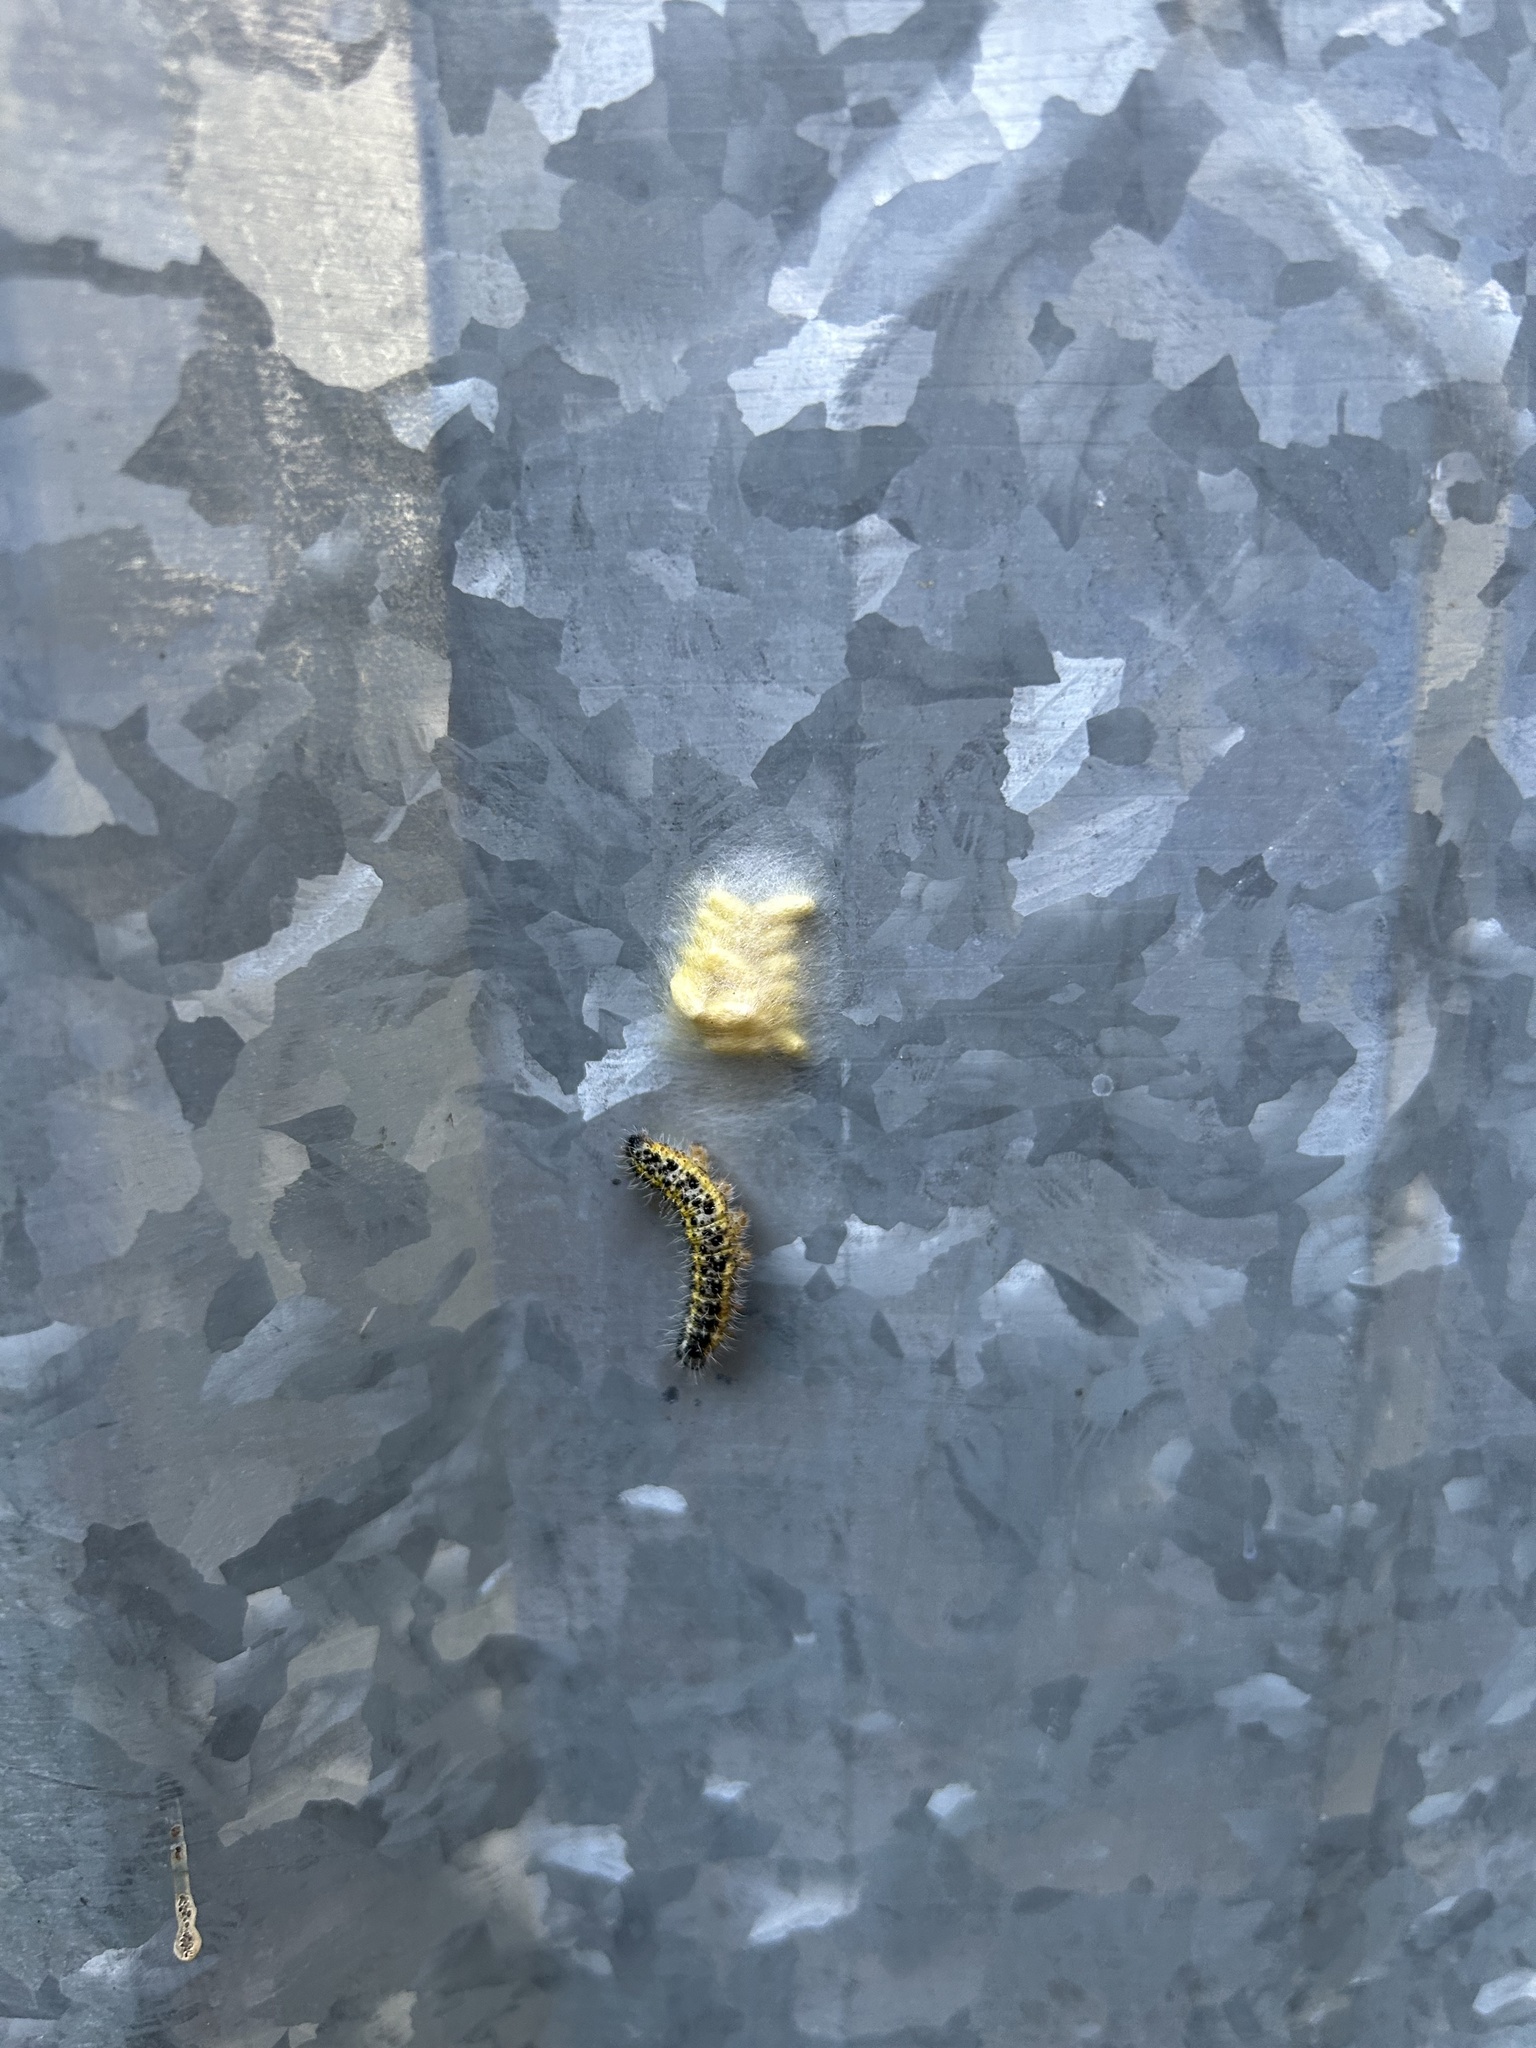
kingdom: Animalia
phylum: Arthropoda
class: Insecta
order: Lepidoptera
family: Pieridae
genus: Pieris
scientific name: Pieris brassicae
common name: Large white
